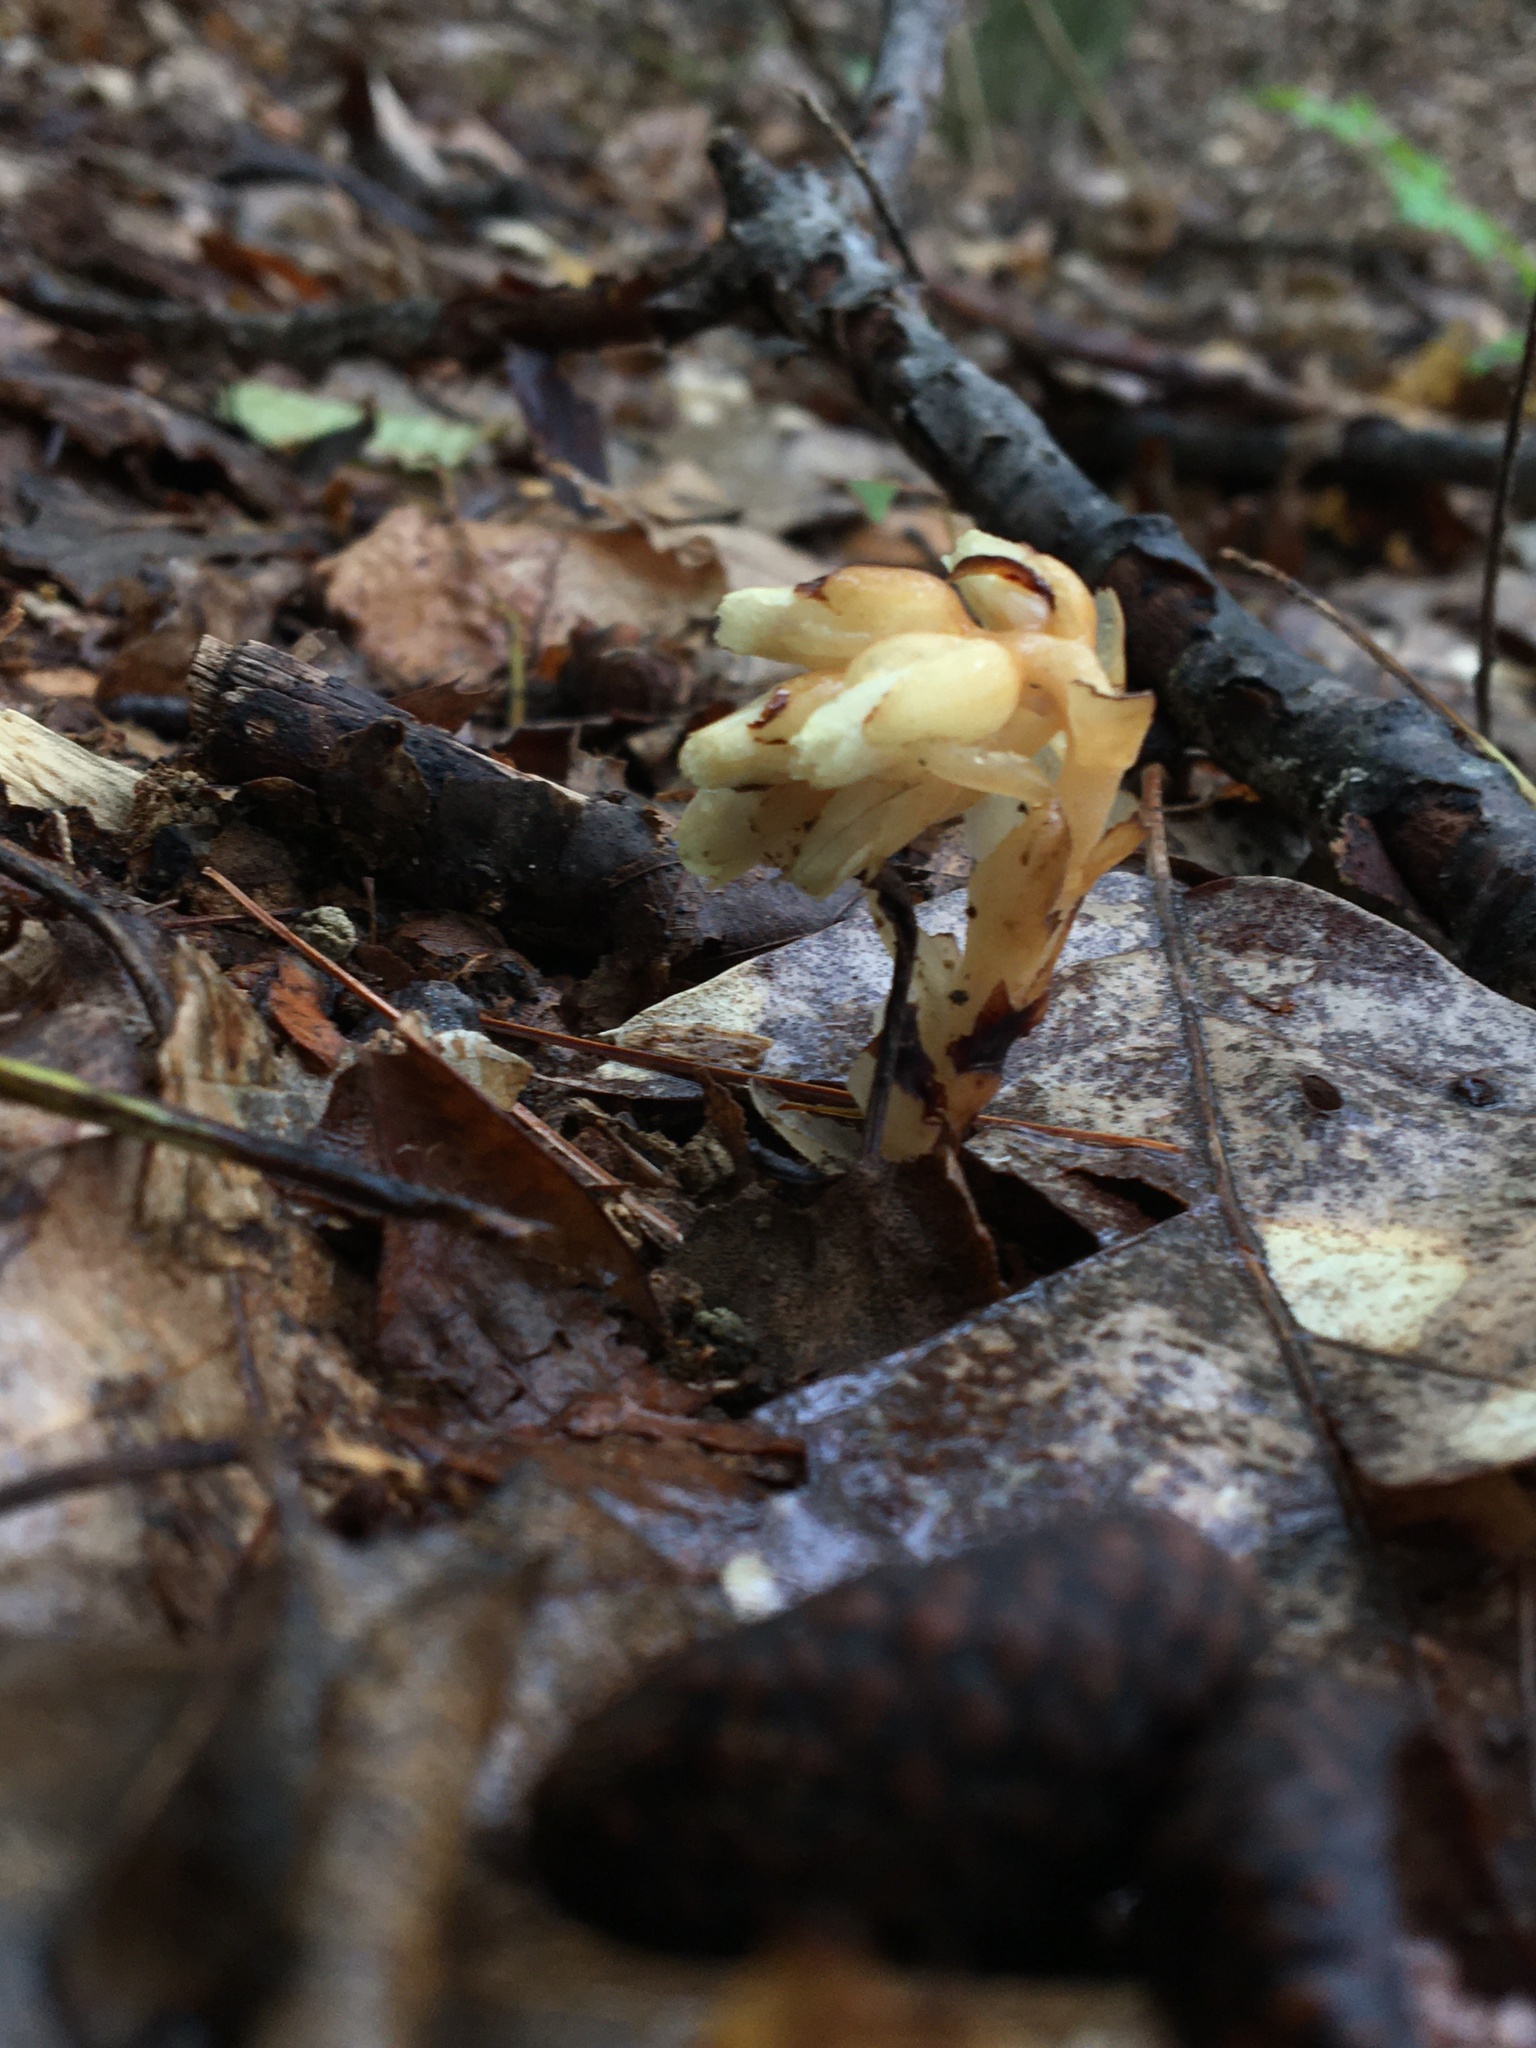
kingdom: Plantae
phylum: Tracheophyta
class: Magnoliopsida
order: Ericales
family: Ericaceae
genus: Hypopitys
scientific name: Hypopitys monotropa
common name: Yellow bird's-nest
